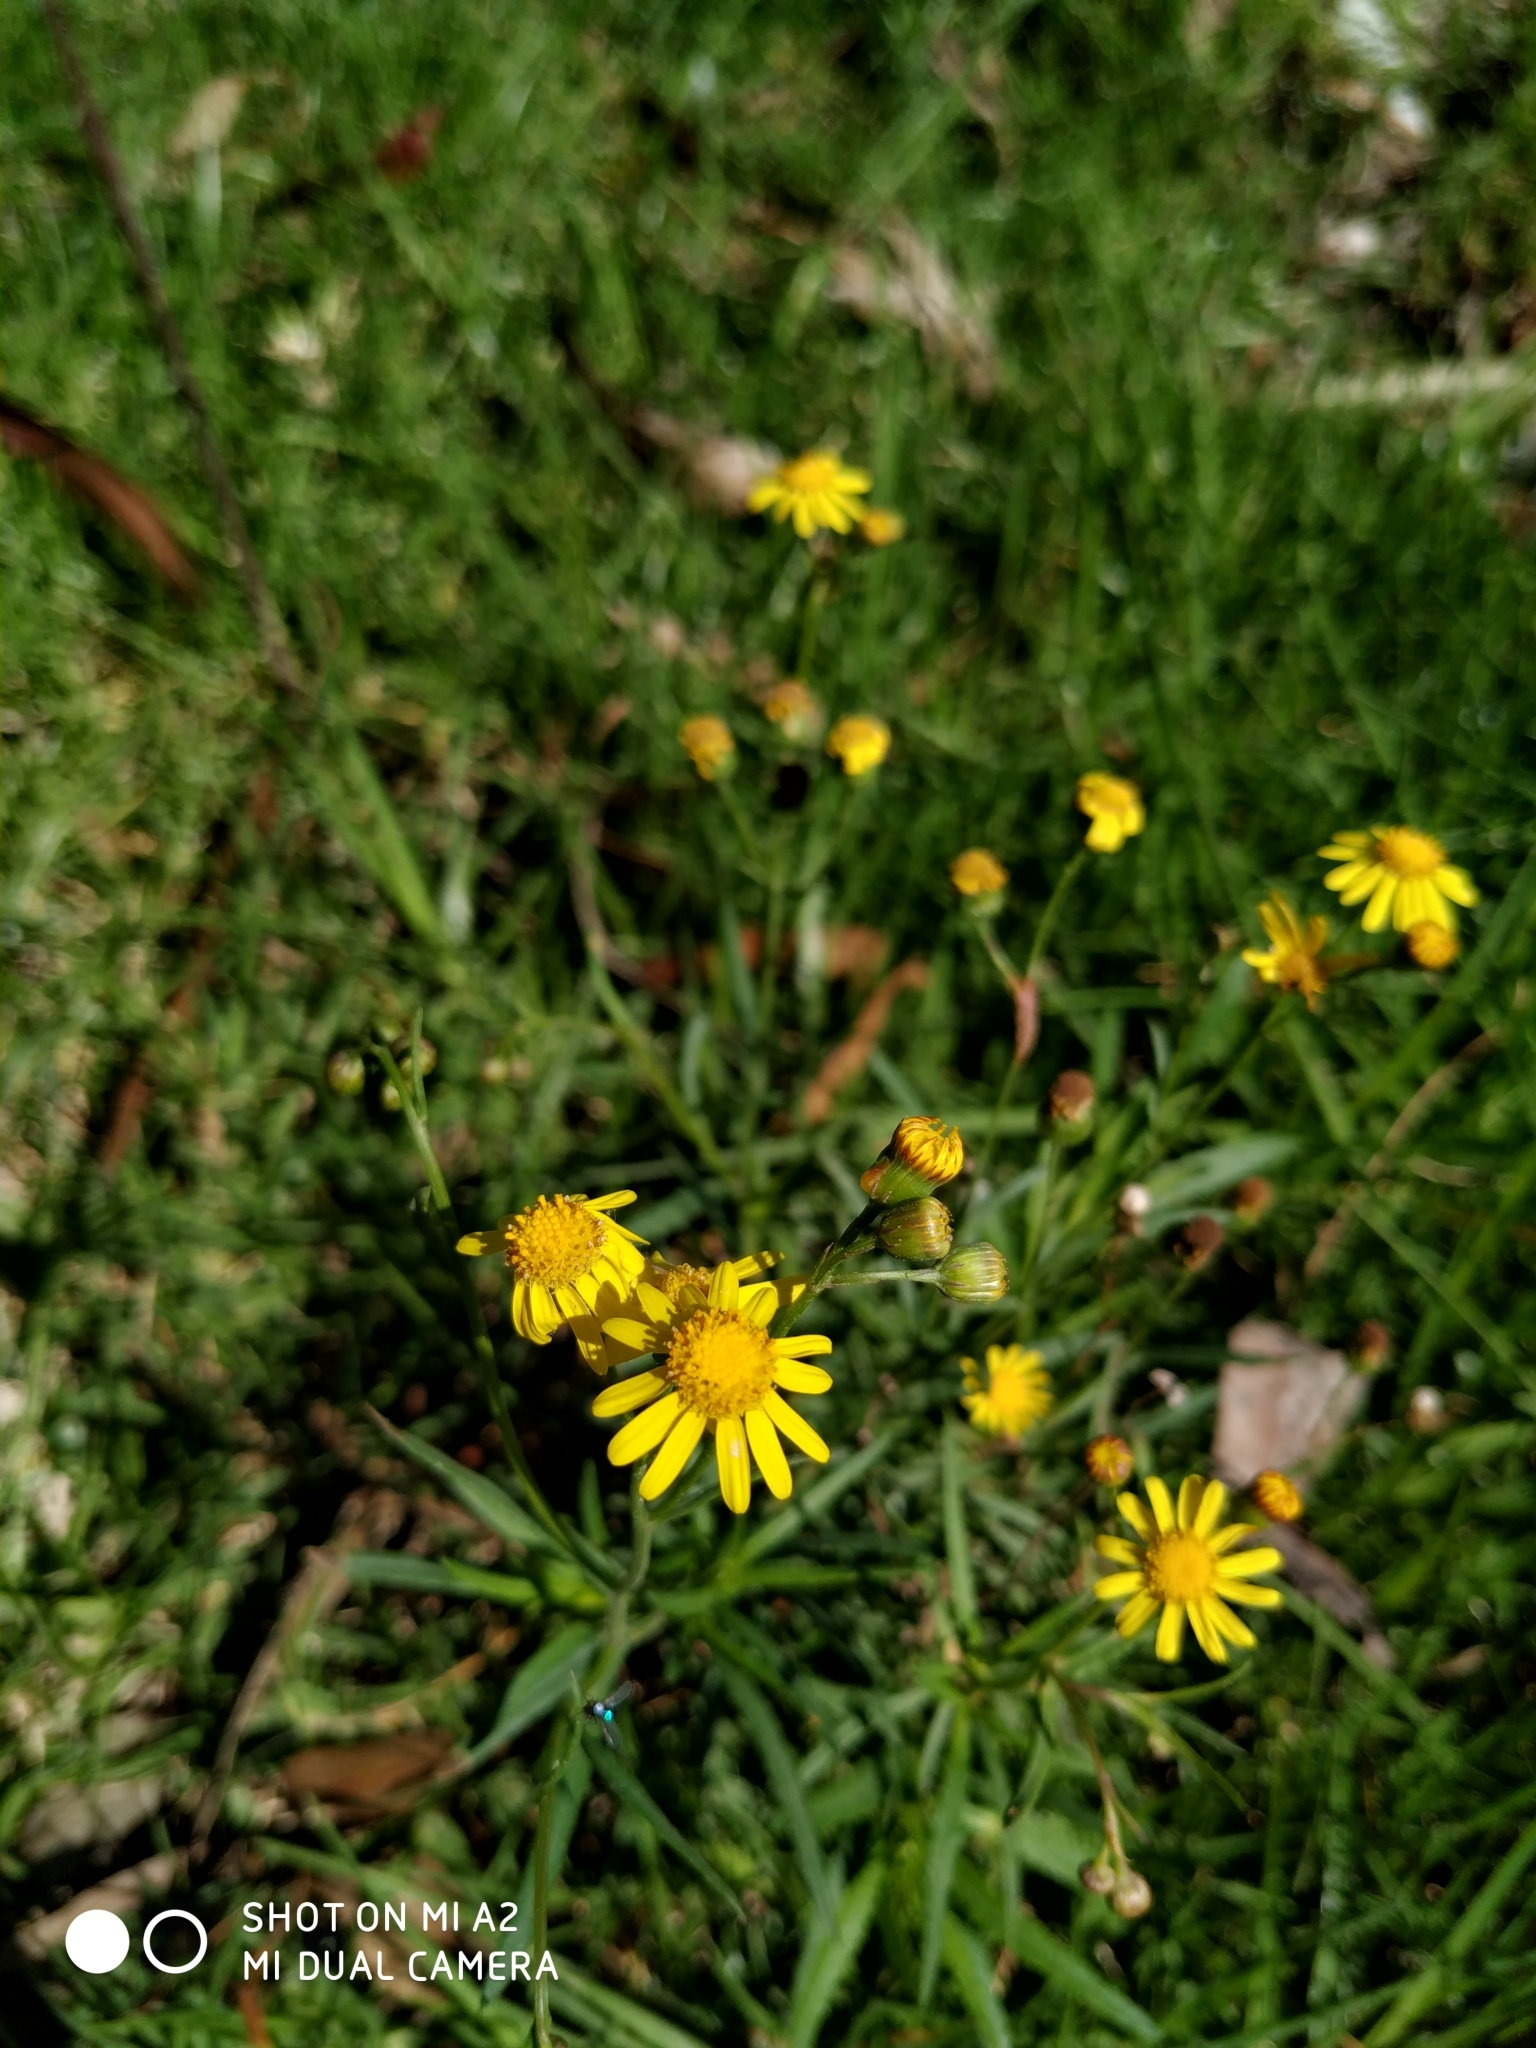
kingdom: Plantae
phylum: Tracheophyta
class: Magnoliopsida
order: Asterales
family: Asteraceae
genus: Senecio
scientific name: Senecio madagascariensis
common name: Madagascar ragwort
